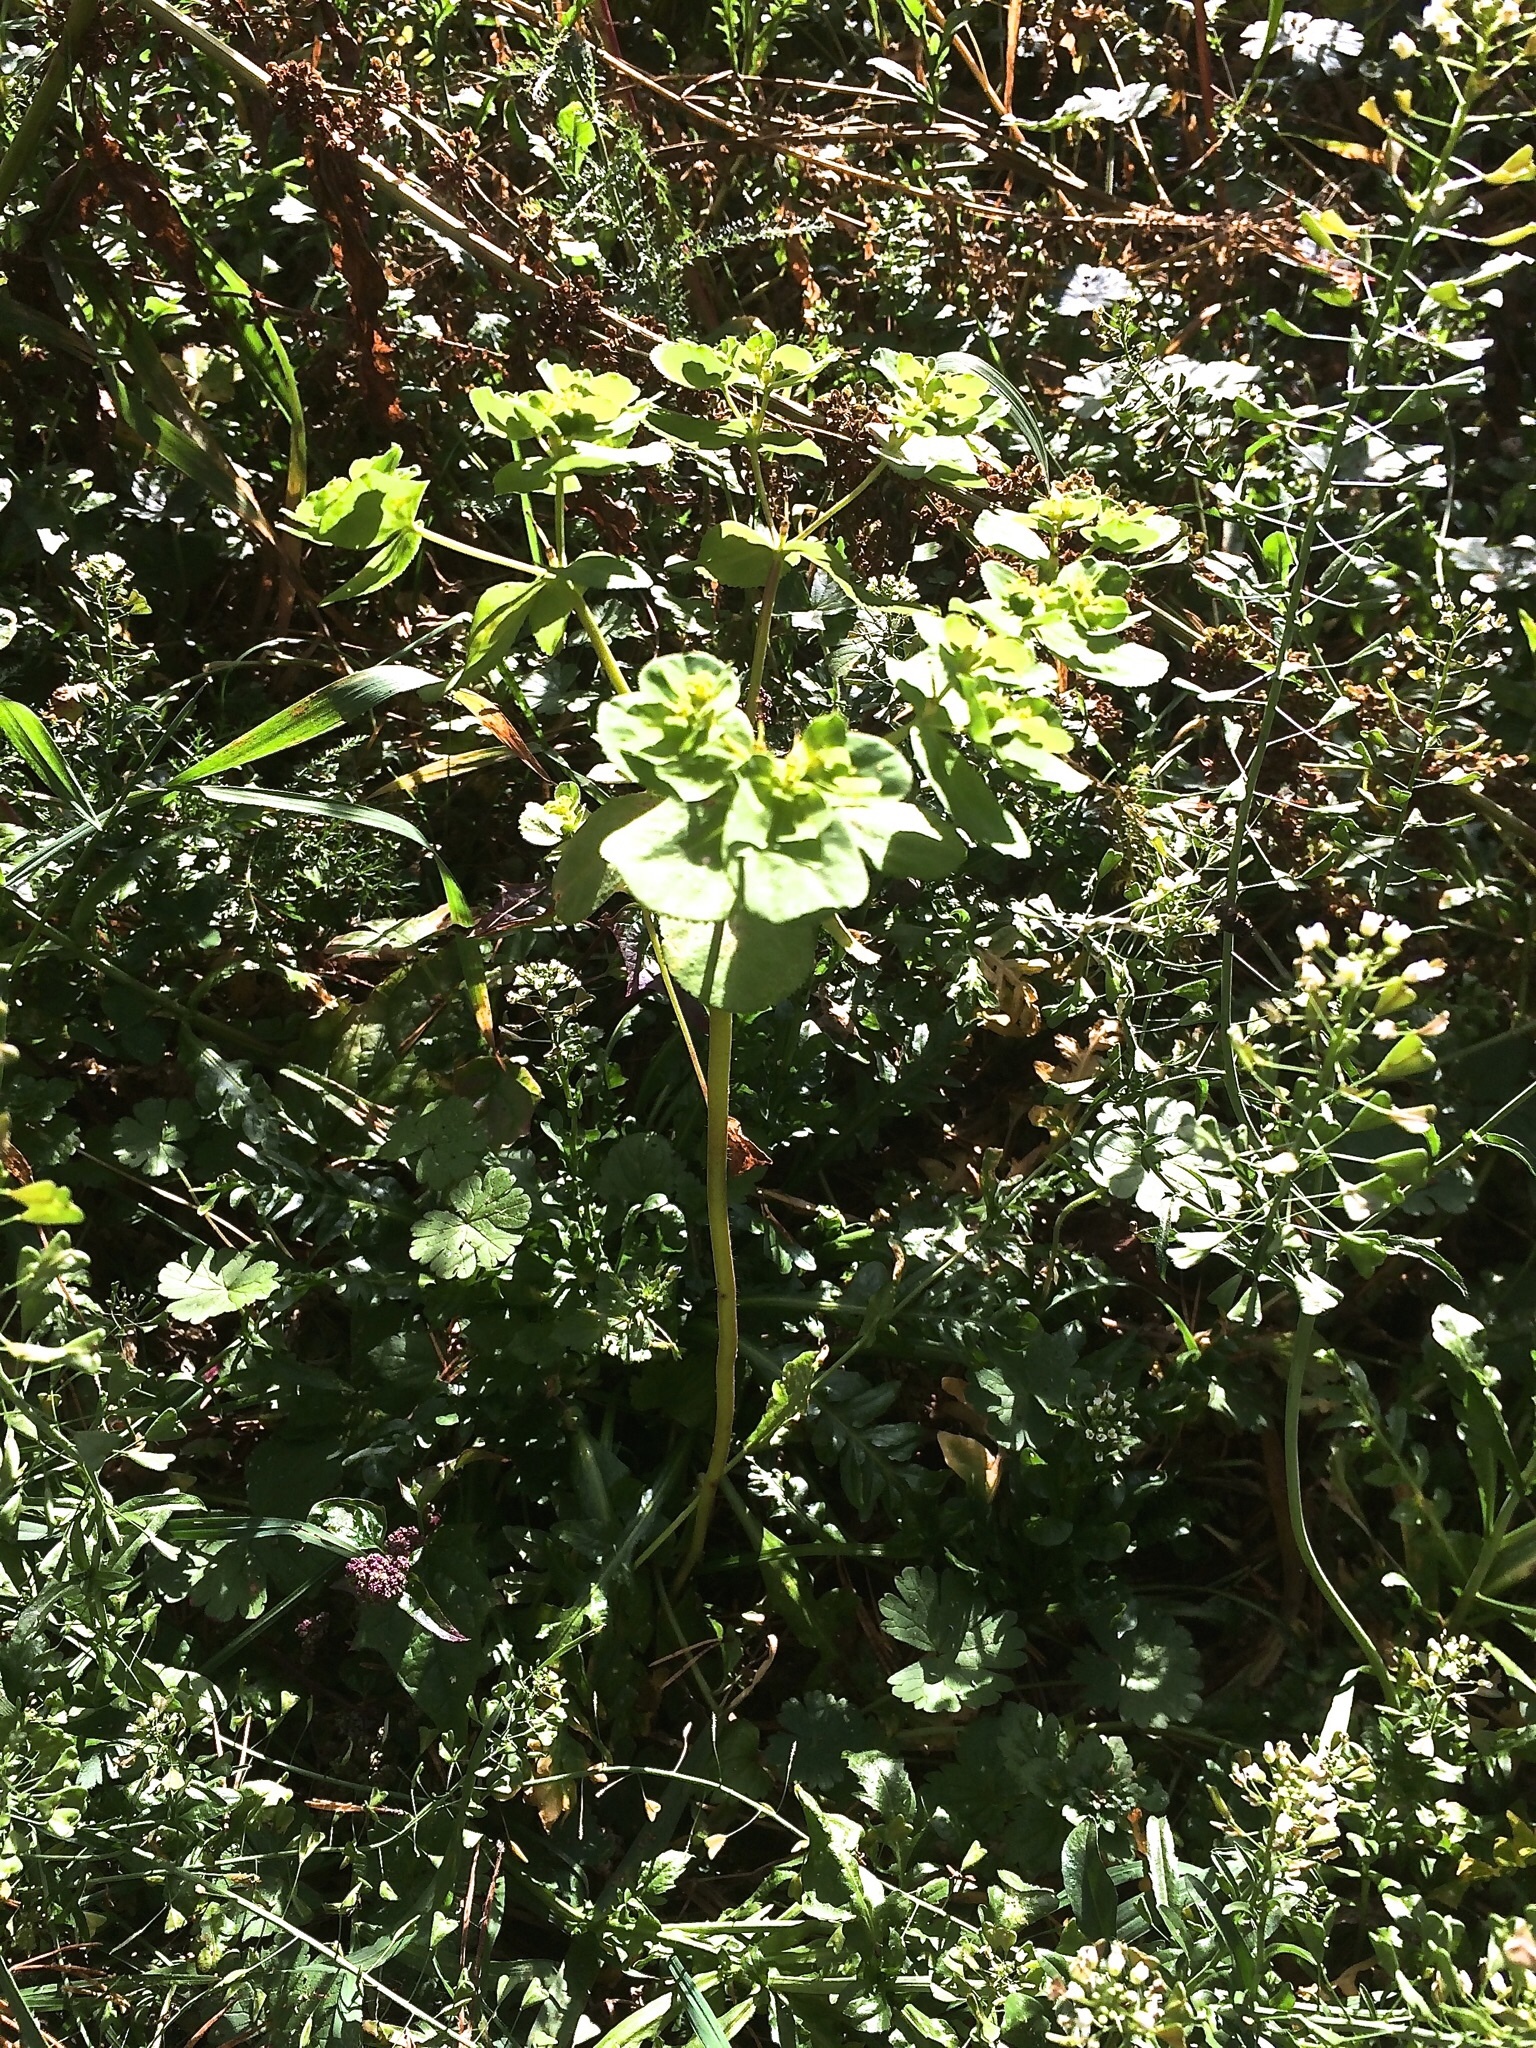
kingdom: Plantae
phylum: Tracheophyta
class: Magnoliopsida
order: Malpighiales
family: Euphorbiaceae
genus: Euphorbia
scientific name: Euphorbia helioscopia
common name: Sun spurge
